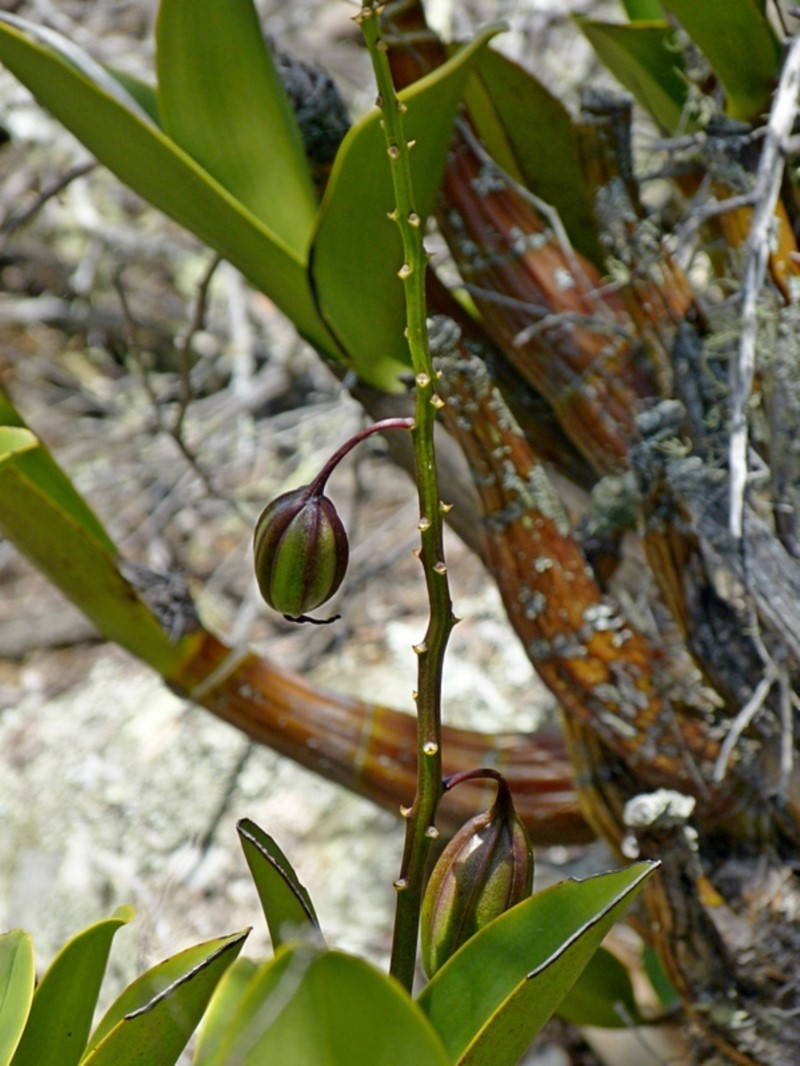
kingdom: Plantae
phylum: Tracheophyta
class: Liliopsida
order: Asparagales
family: Orchidaceae
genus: Dendrobium
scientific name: Dendrobium speciosum
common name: Rock-lily
